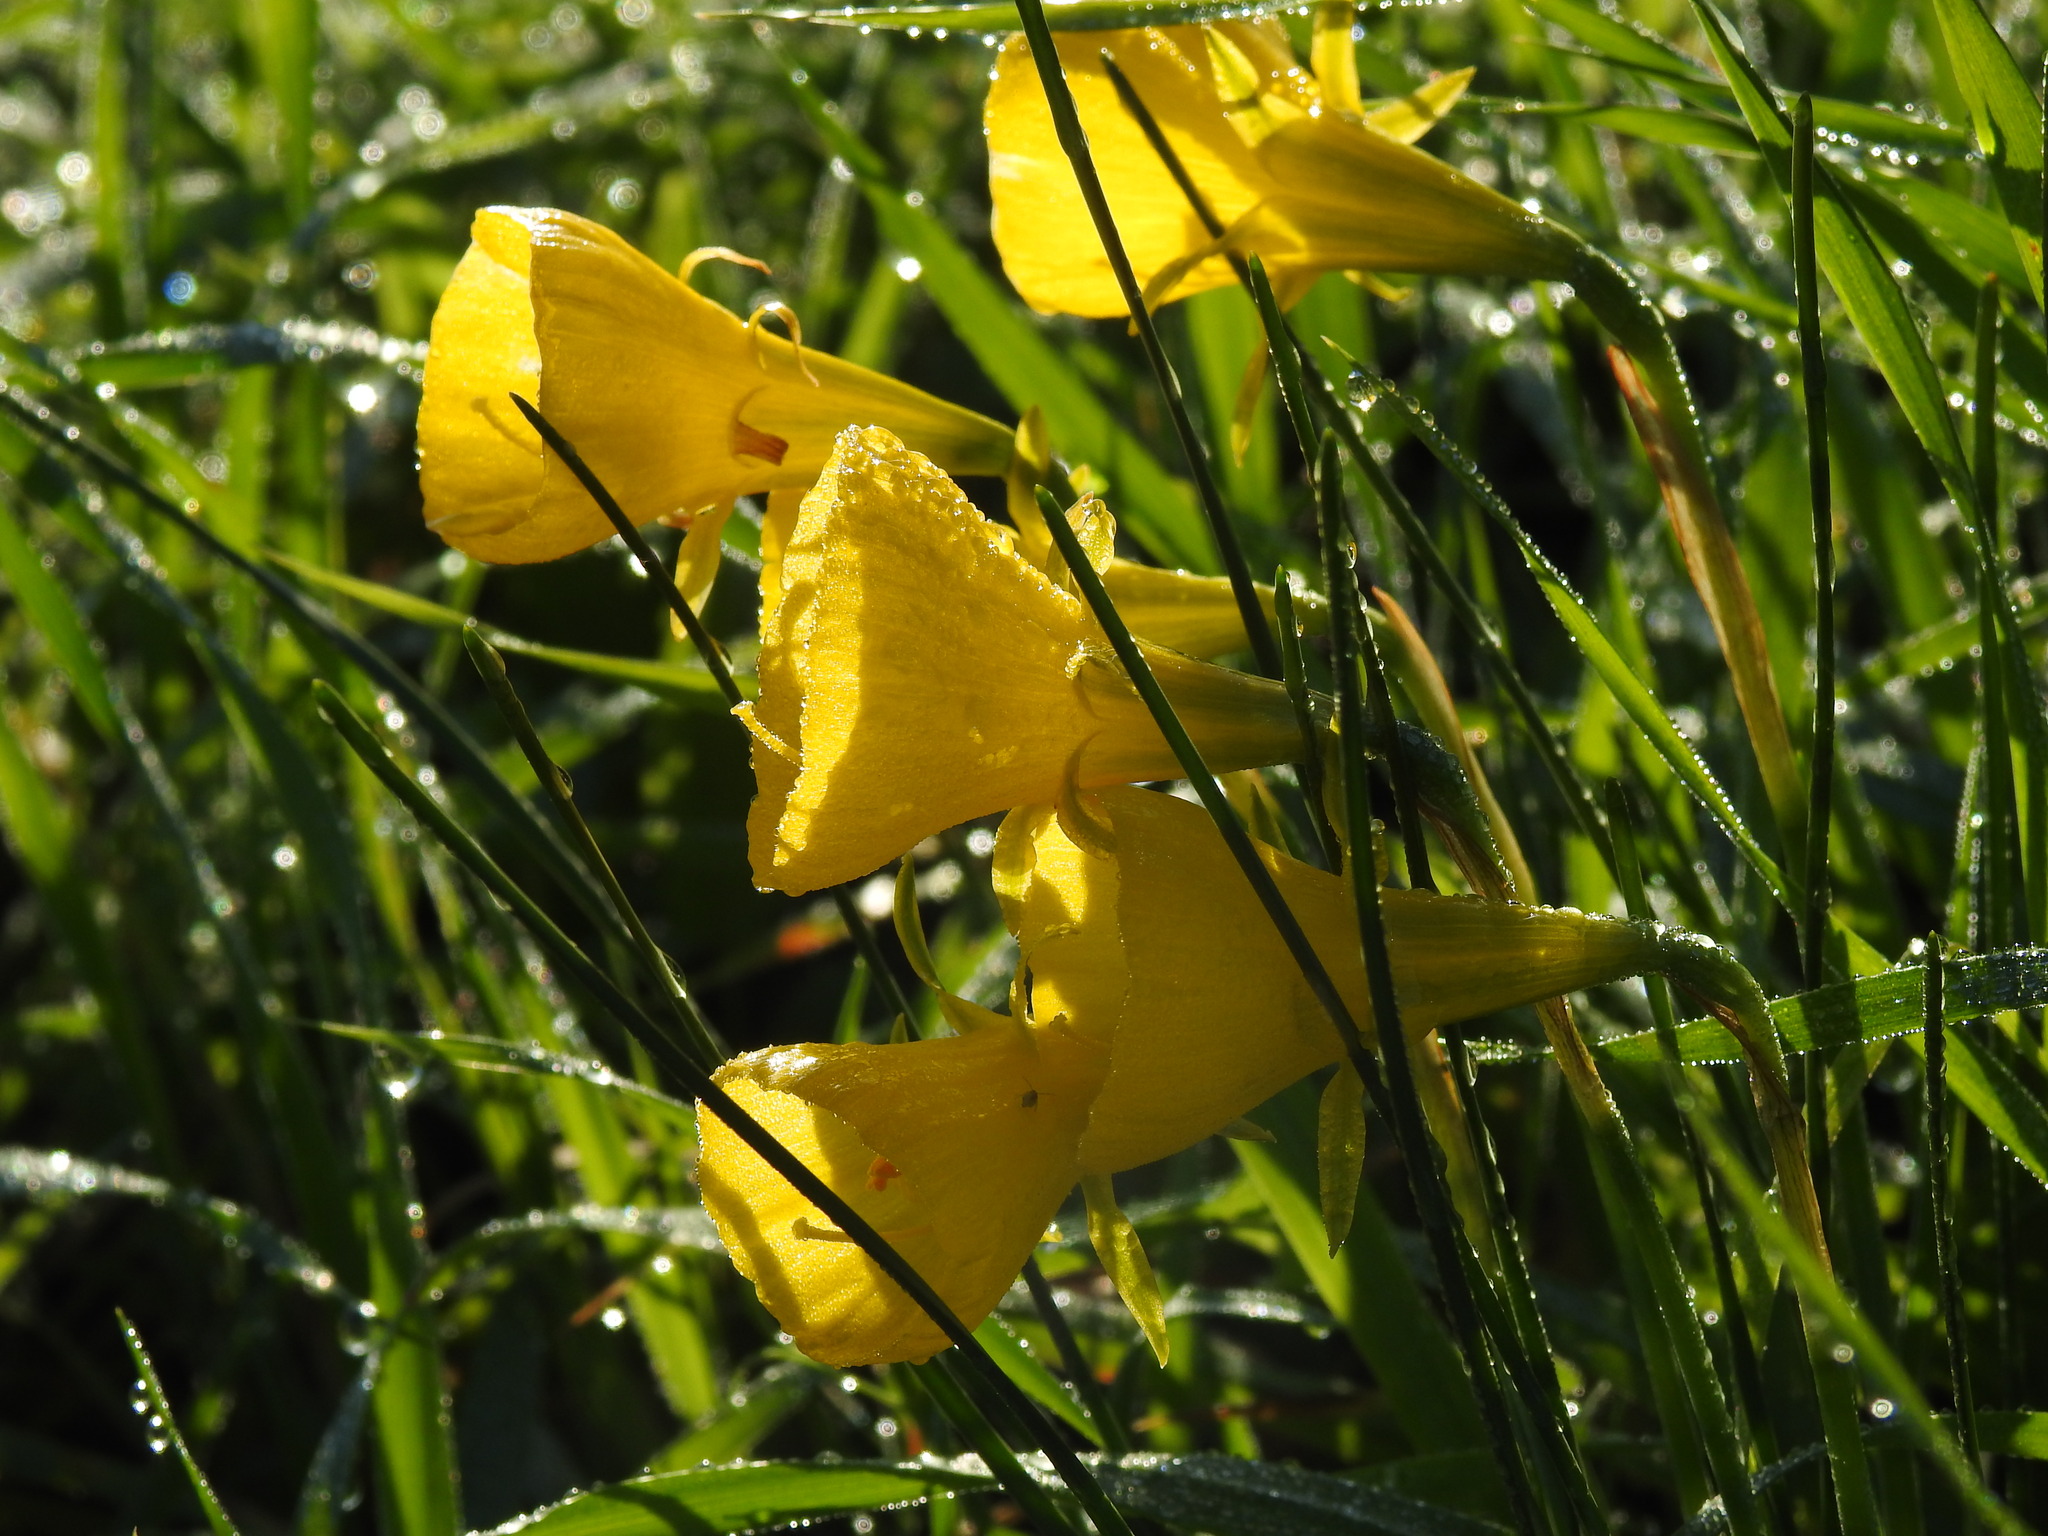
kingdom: Plantae
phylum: Tracheophyta
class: Liliopsida
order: Asparagales
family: Amaryllidaceae
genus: Narcissus
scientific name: Narcissus bulbocodium
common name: Hoop-petticoat daffodil
